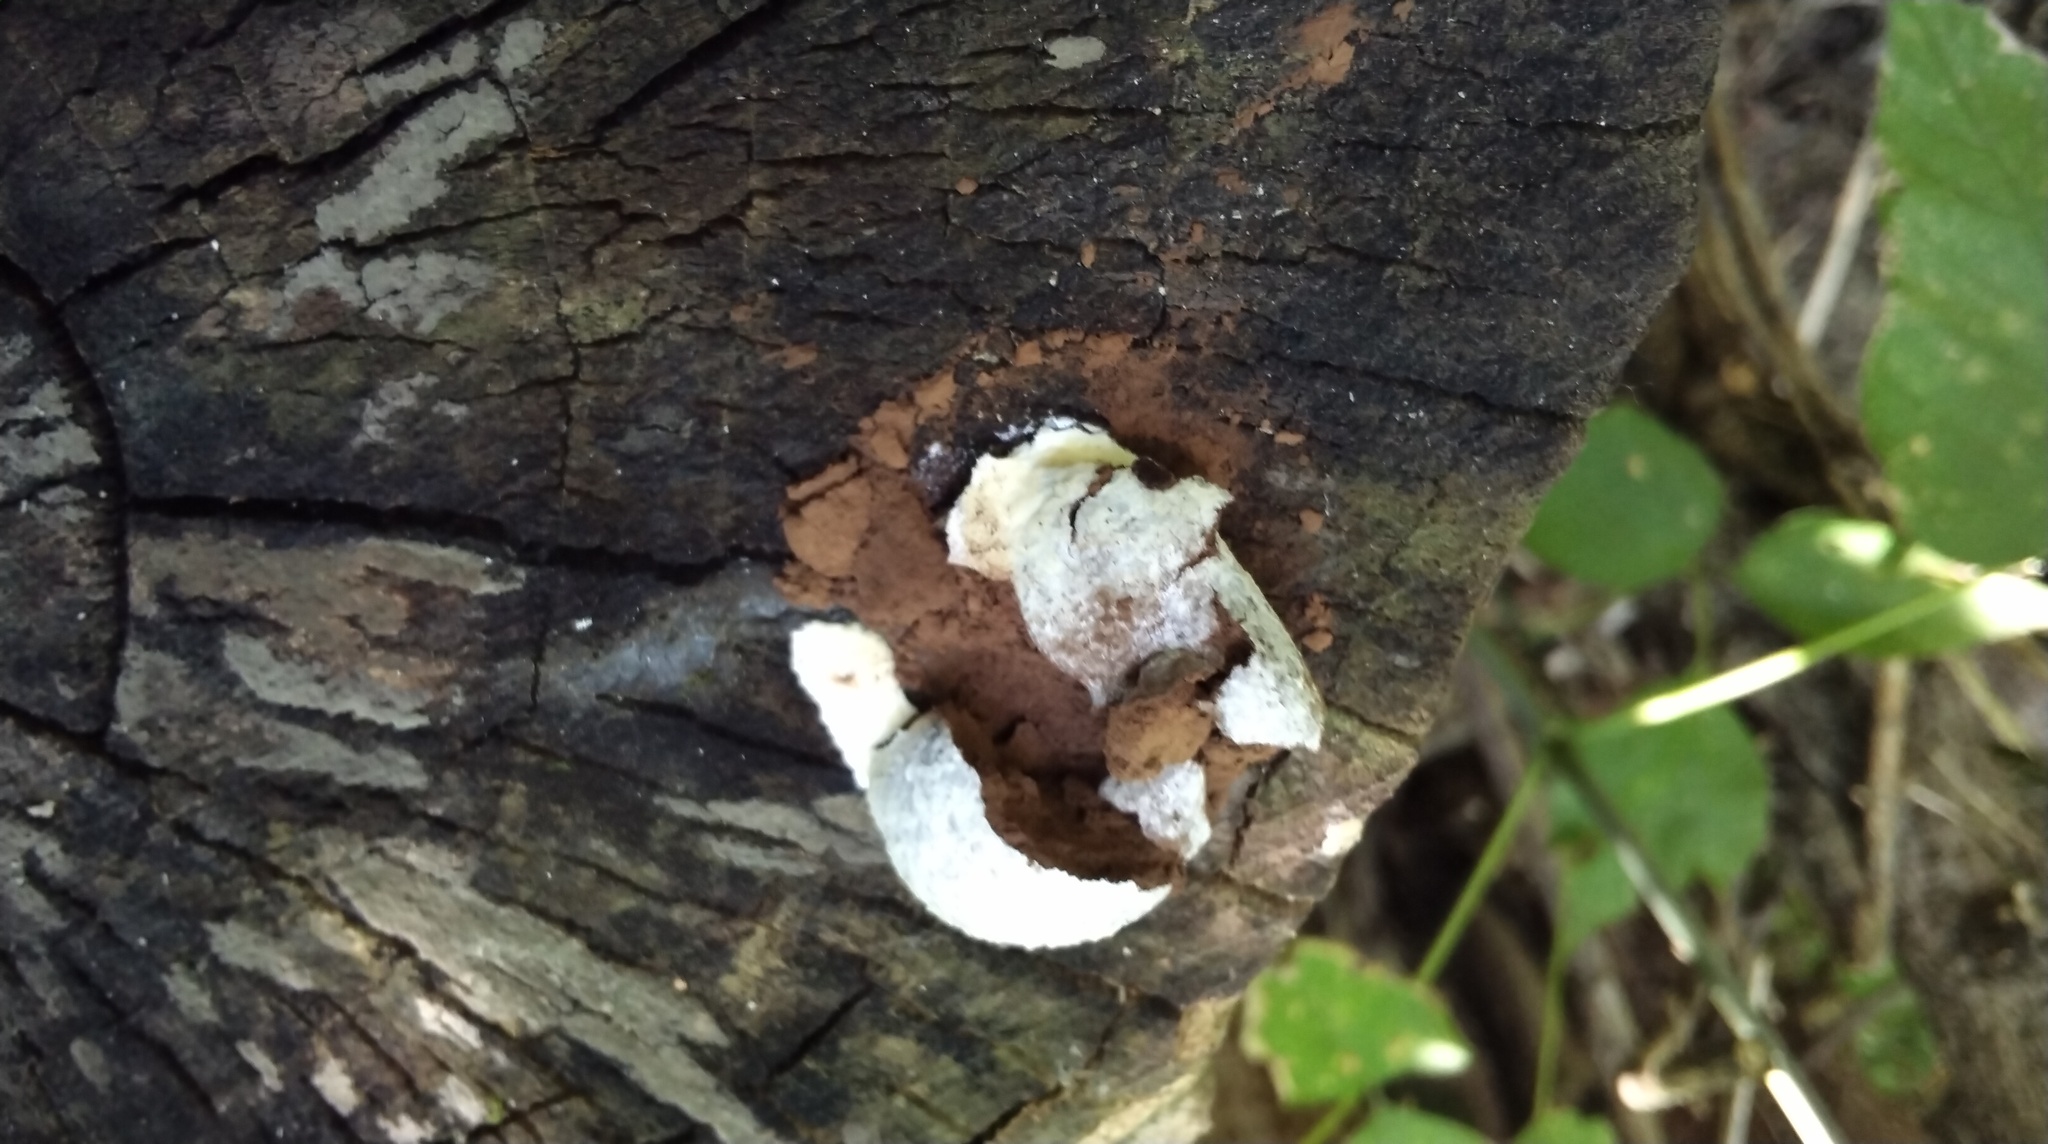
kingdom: Protozoa
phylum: Mycetozoa
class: Myxomycetes
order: Cribrariales
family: Tubiferaceae
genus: Reticularia
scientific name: Reticularia lycoperdon
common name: False puffball
